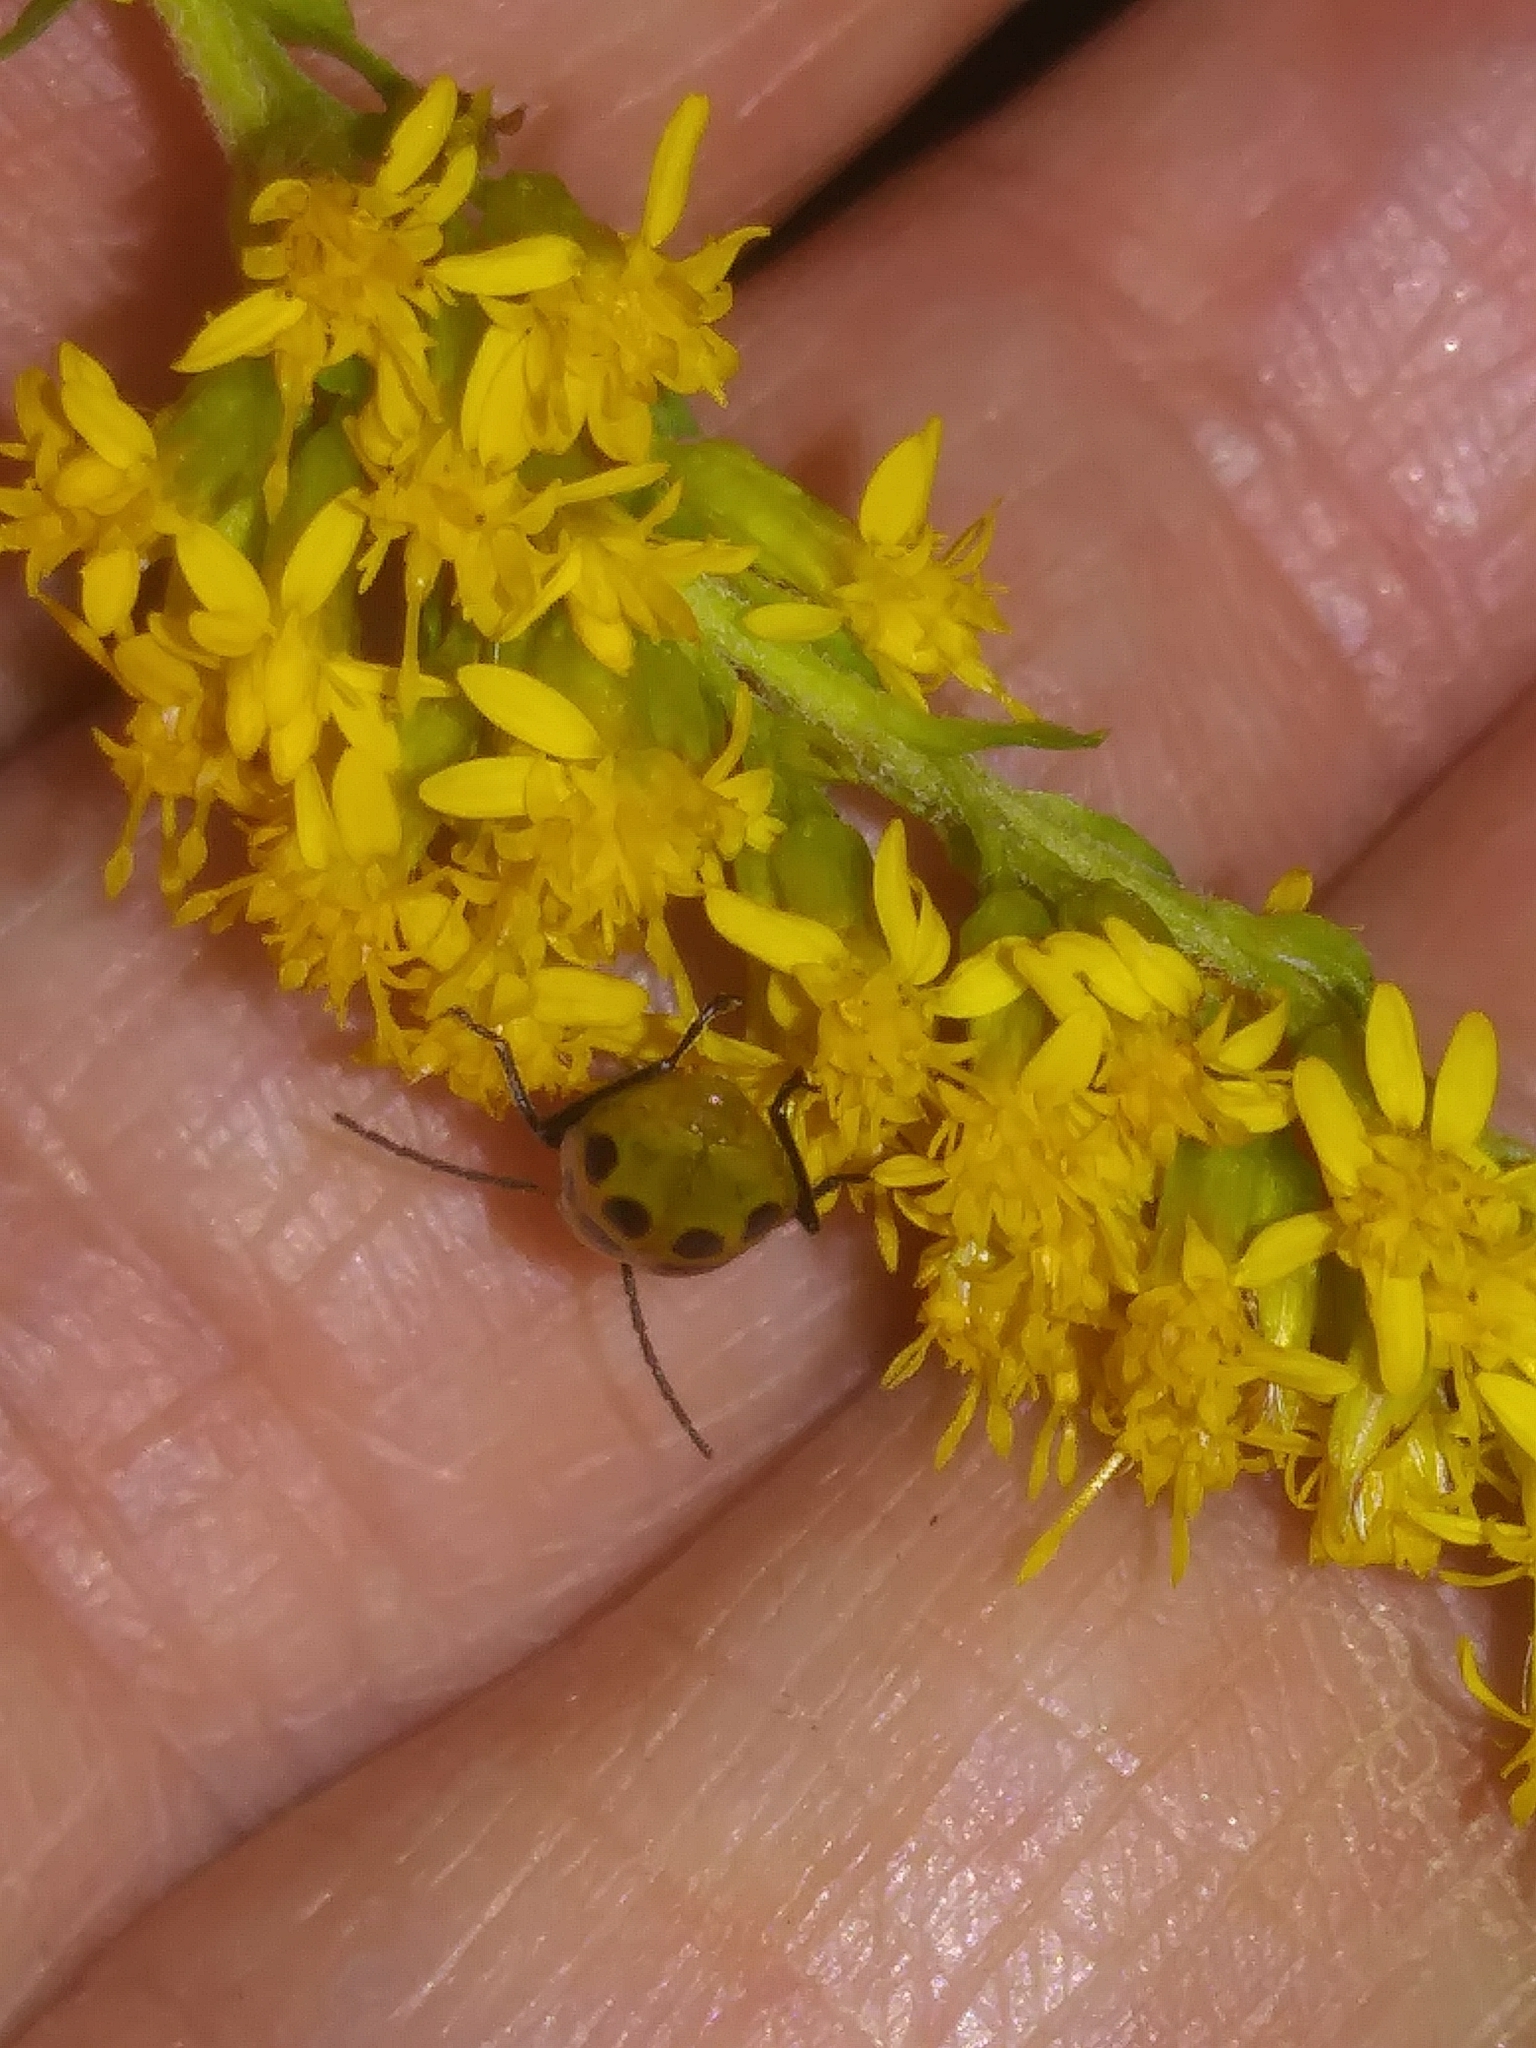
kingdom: Animalia
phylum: Arthropoda
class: Insecta
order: Coleoptera
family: Chrysomelidae
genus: Diabrotica
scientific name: Diabrotica undecimpunctata
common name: Spotted cucumber beetle
